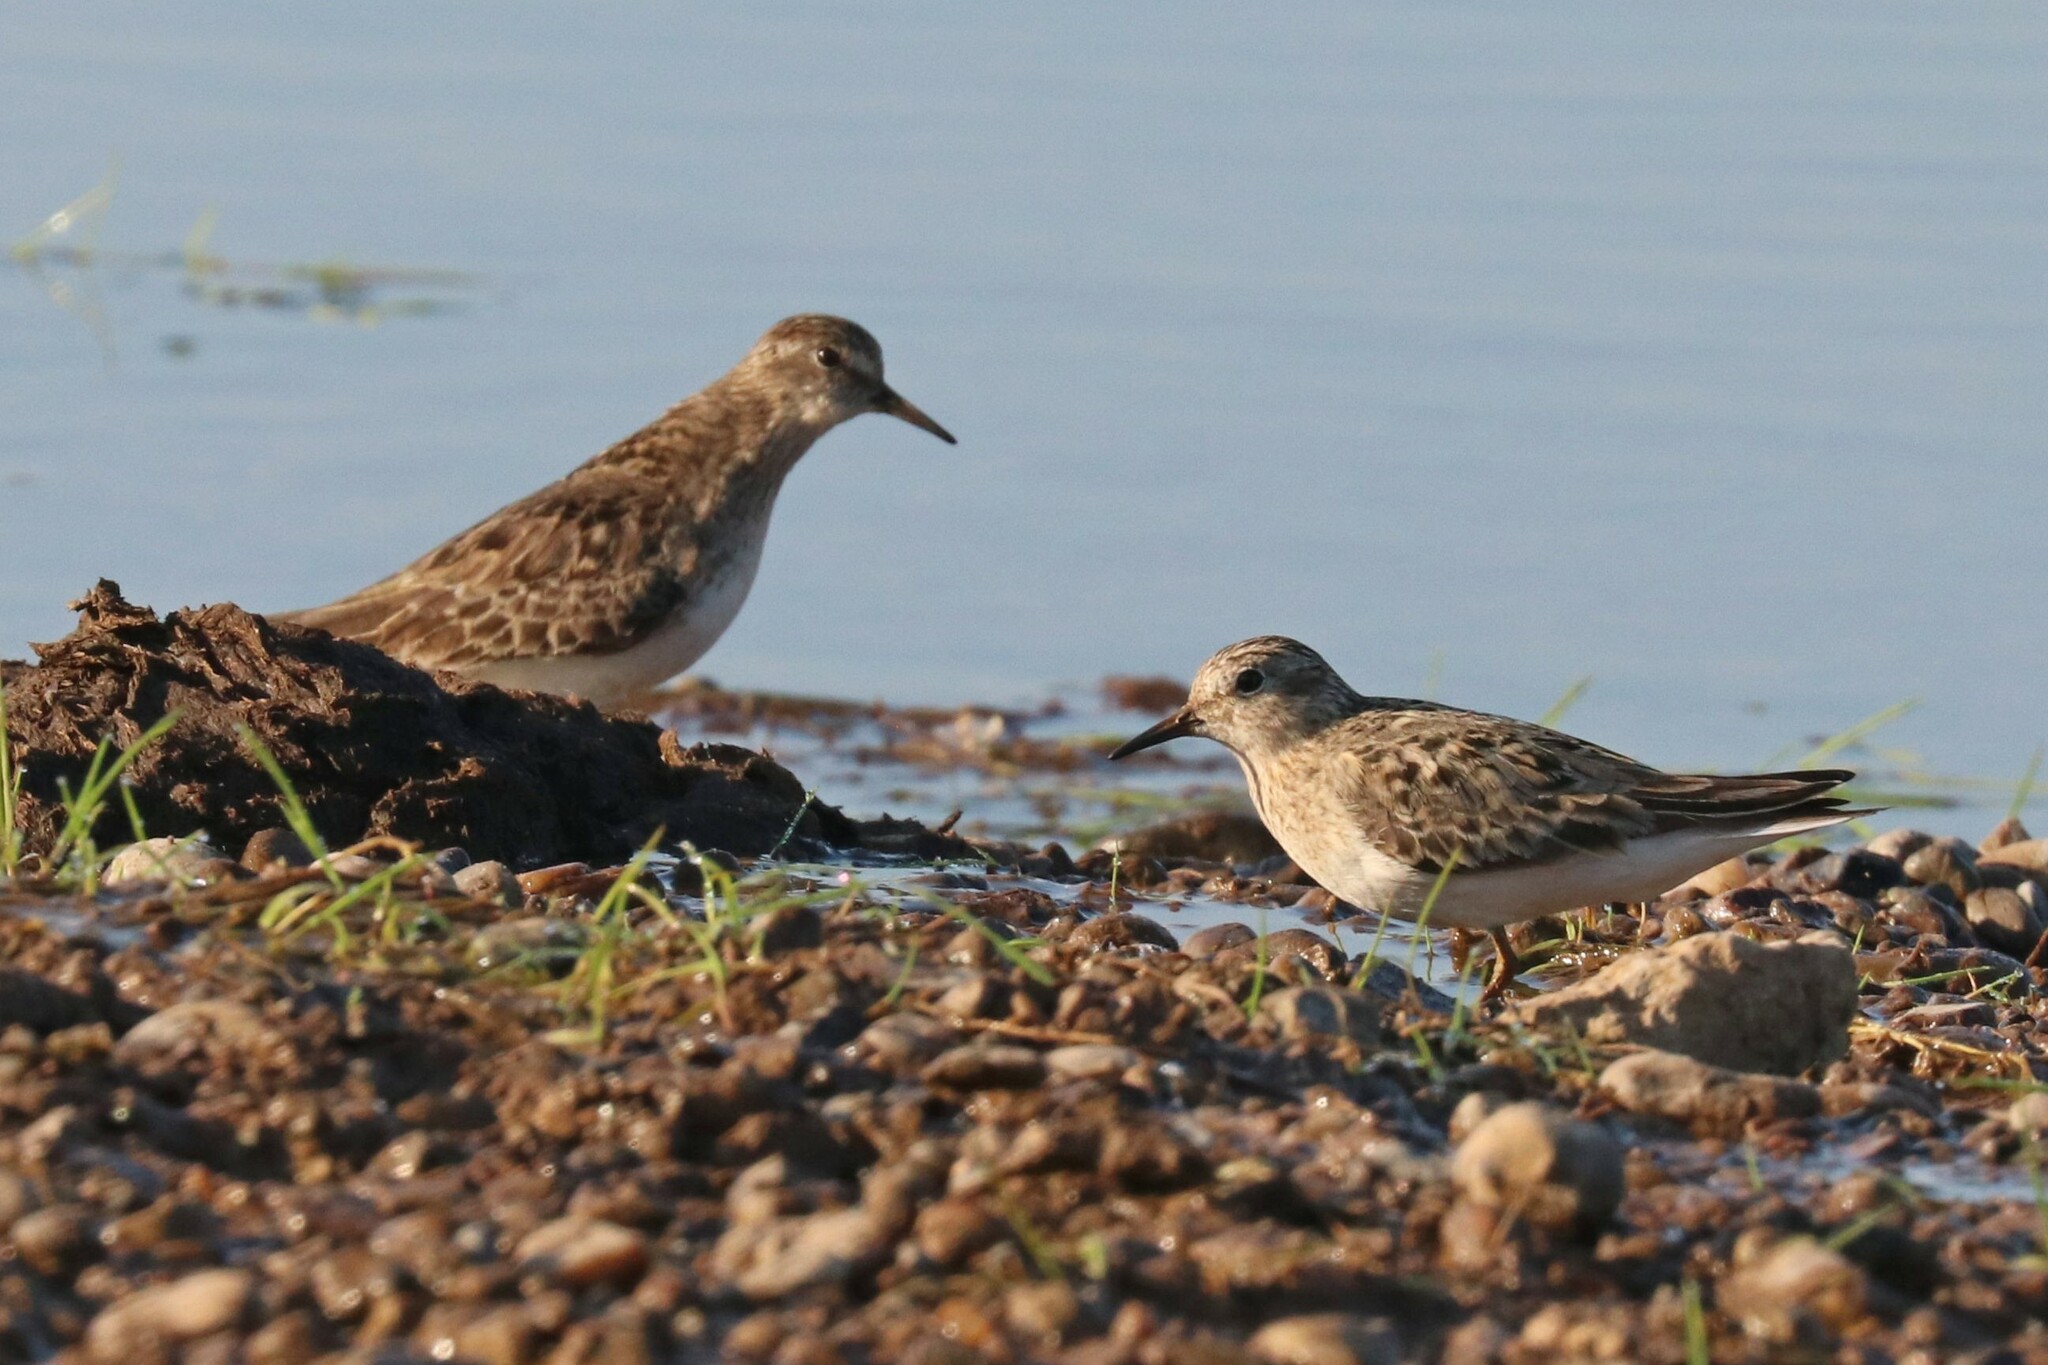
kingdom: Animalia
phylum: Chordata
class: Aves
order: Charadriiformes
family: Scolopacidae
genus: Calidris
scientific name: Calidris temminckii
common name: Temminck's stint
